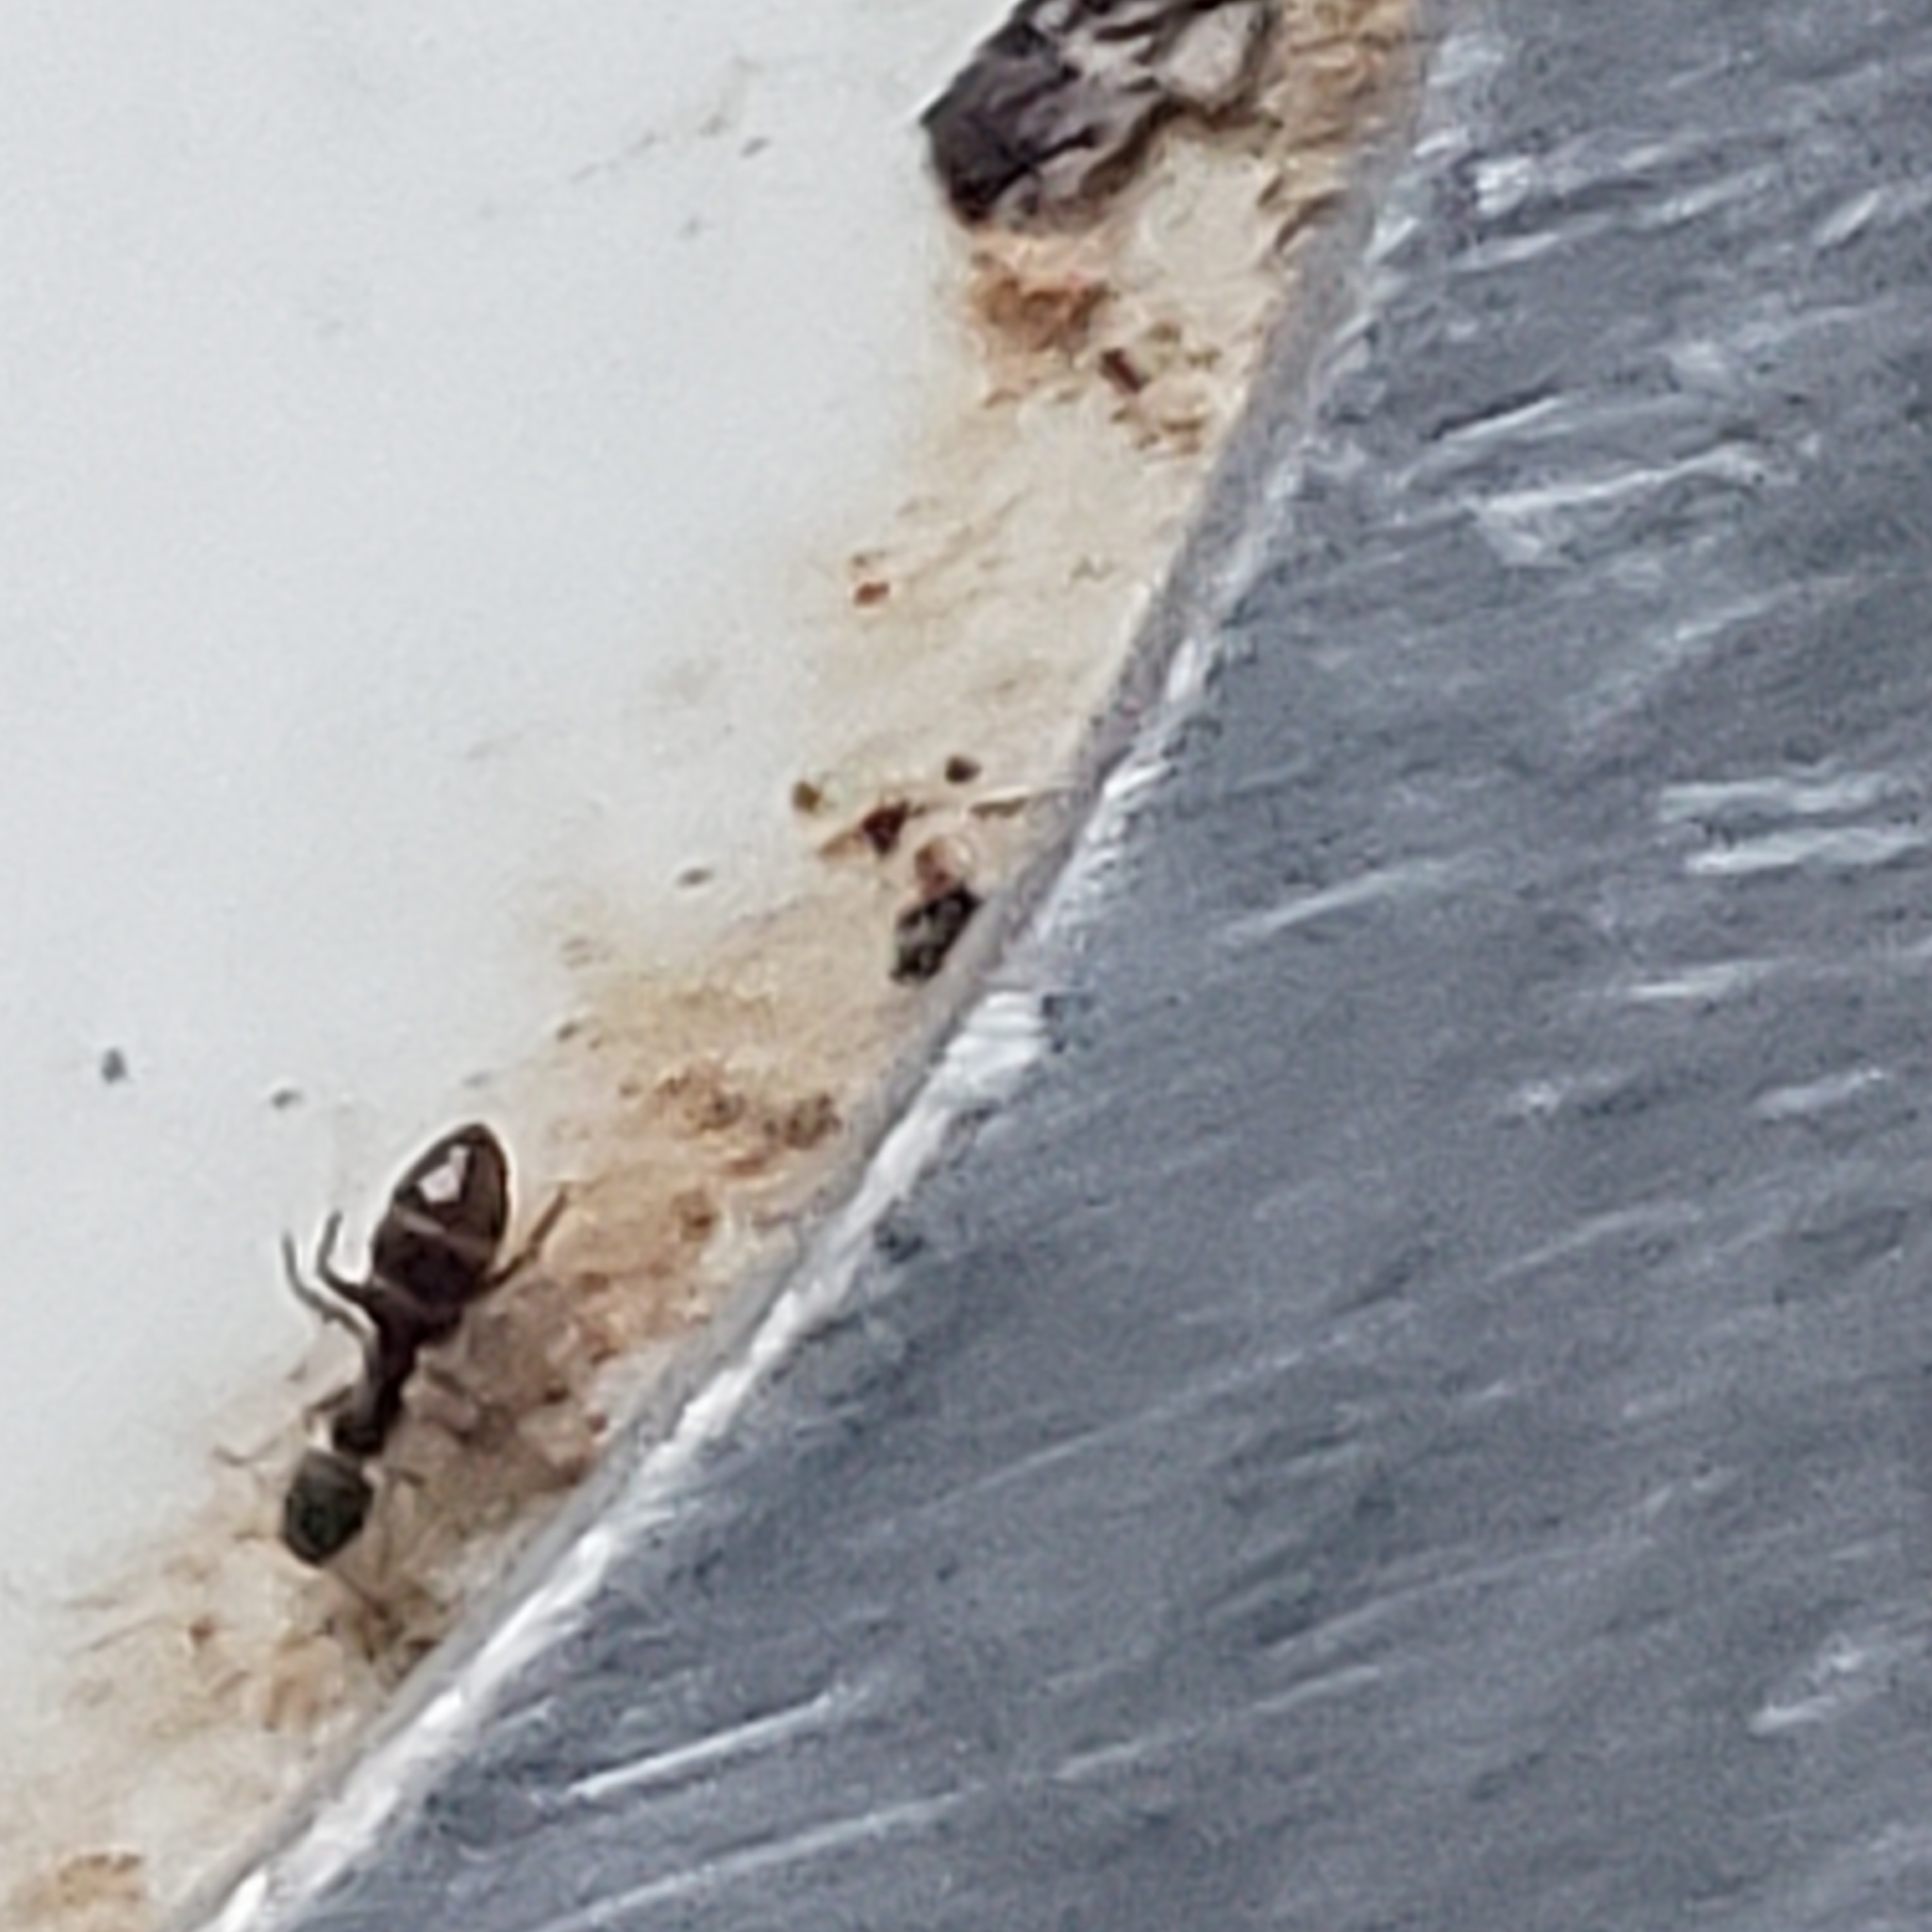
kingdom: Animalia
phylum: Arthropoda
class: Insecta
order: Hymenoptera
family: Formicidae
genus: Tapinoma
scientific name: Tapinoma sessile
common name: Odorous house ant
